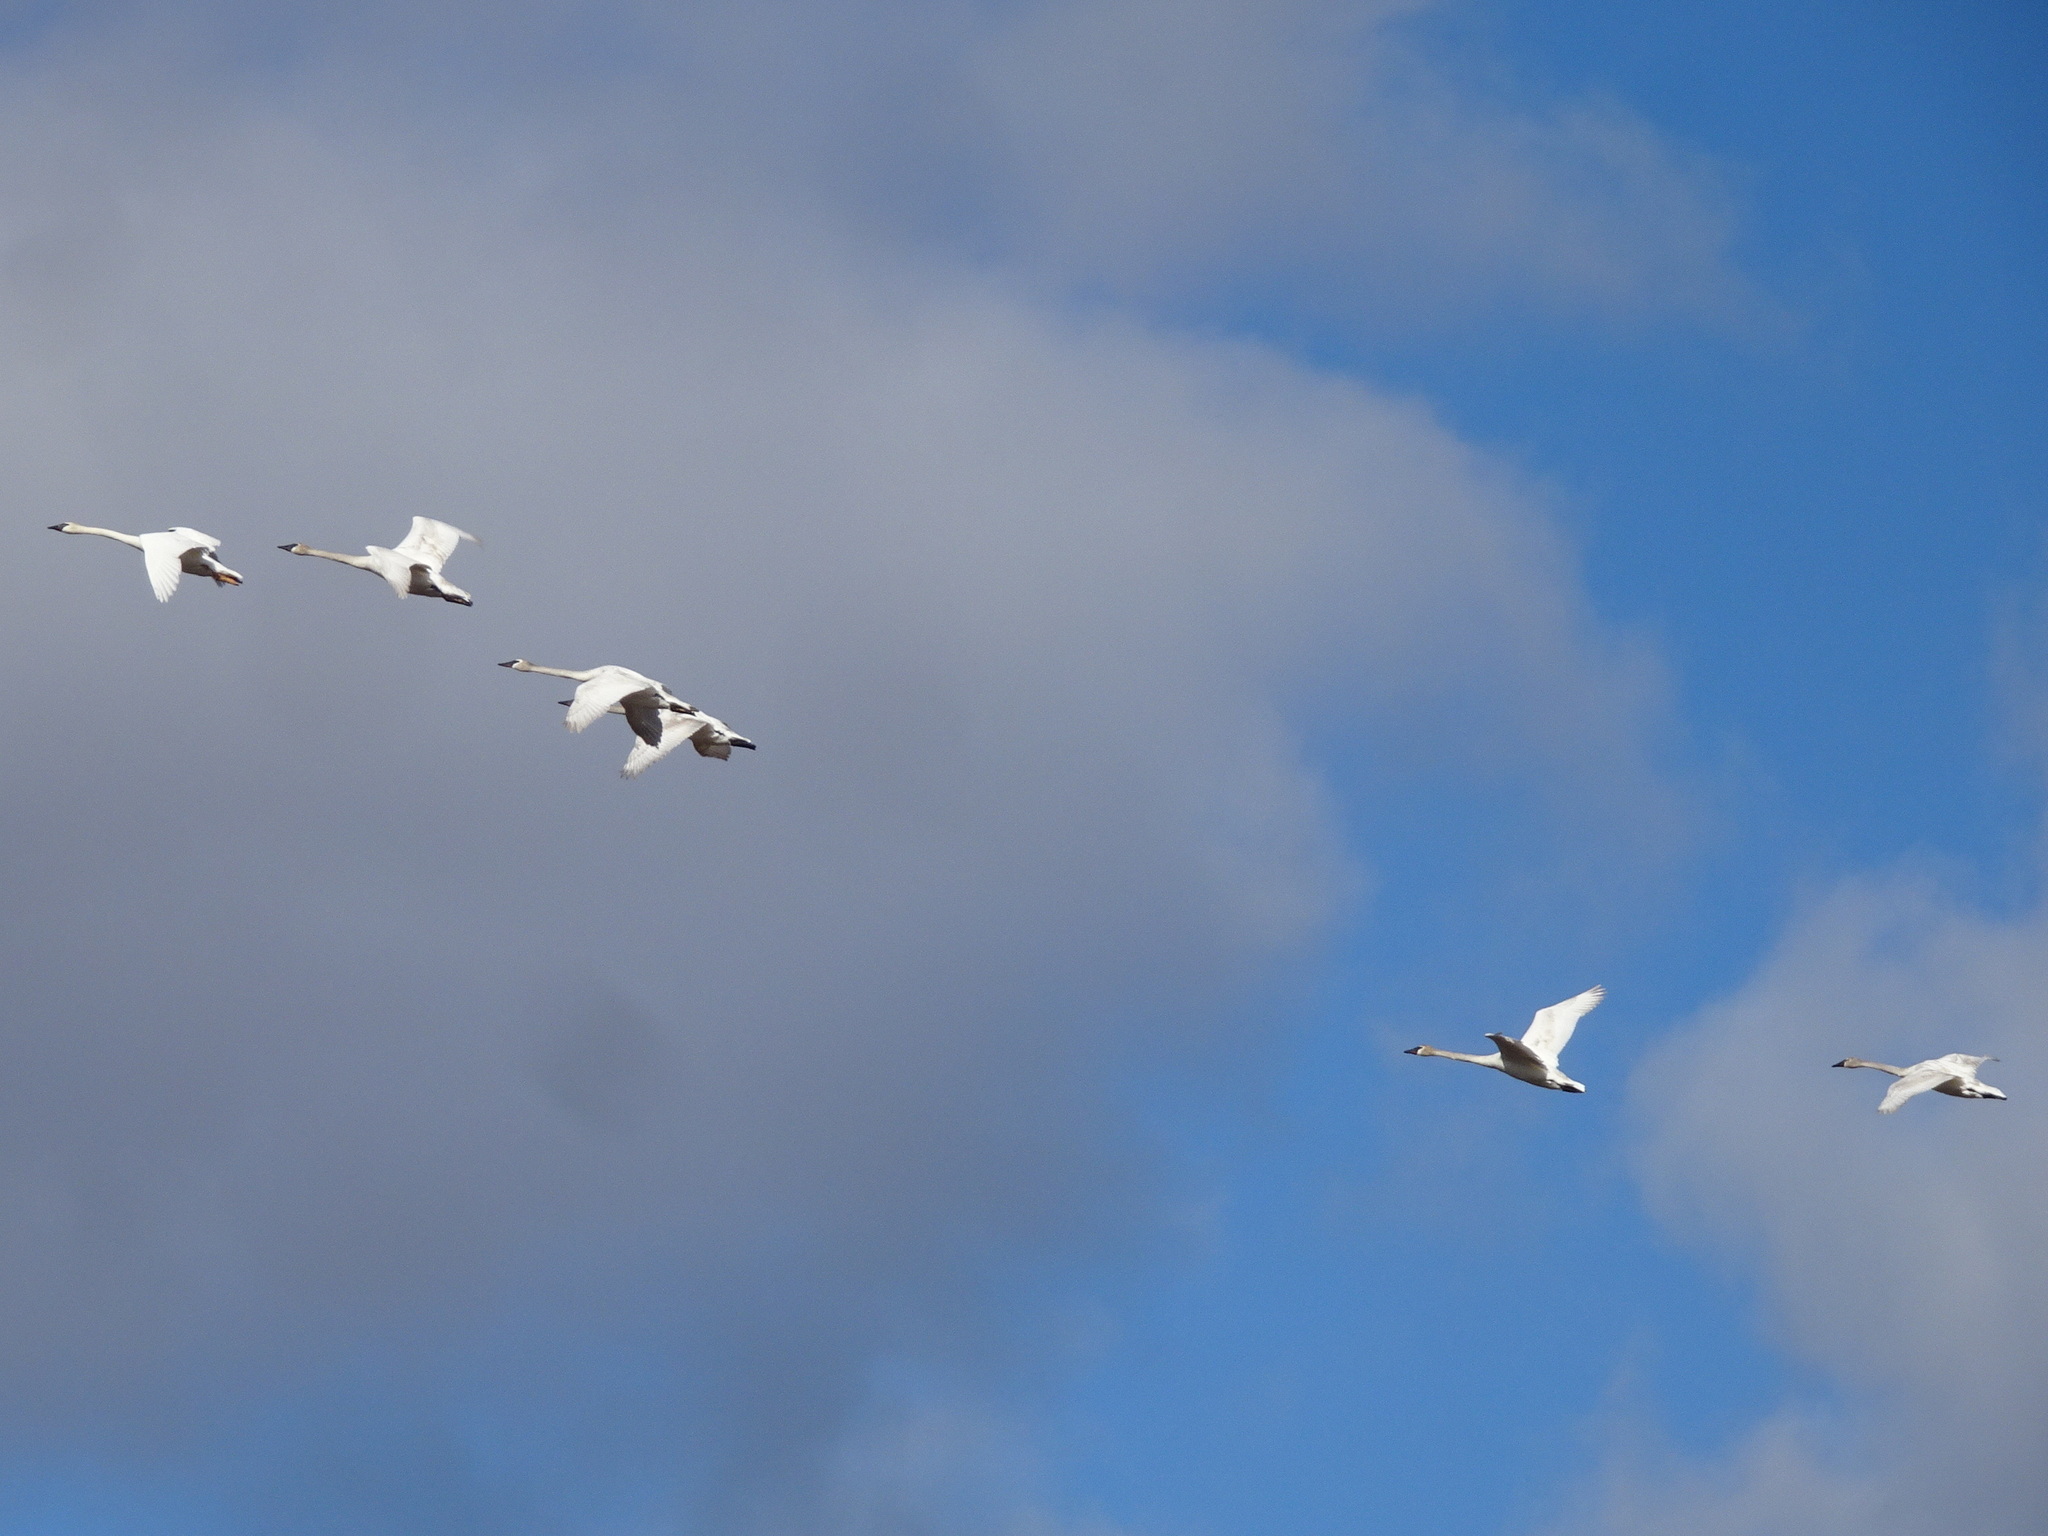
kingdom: Animalia
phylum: Chordata
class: Aves
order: Anseriformes
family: Anatidae
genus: Cygnus
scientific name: Cygnus buccinator
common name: Trumpeter swan
